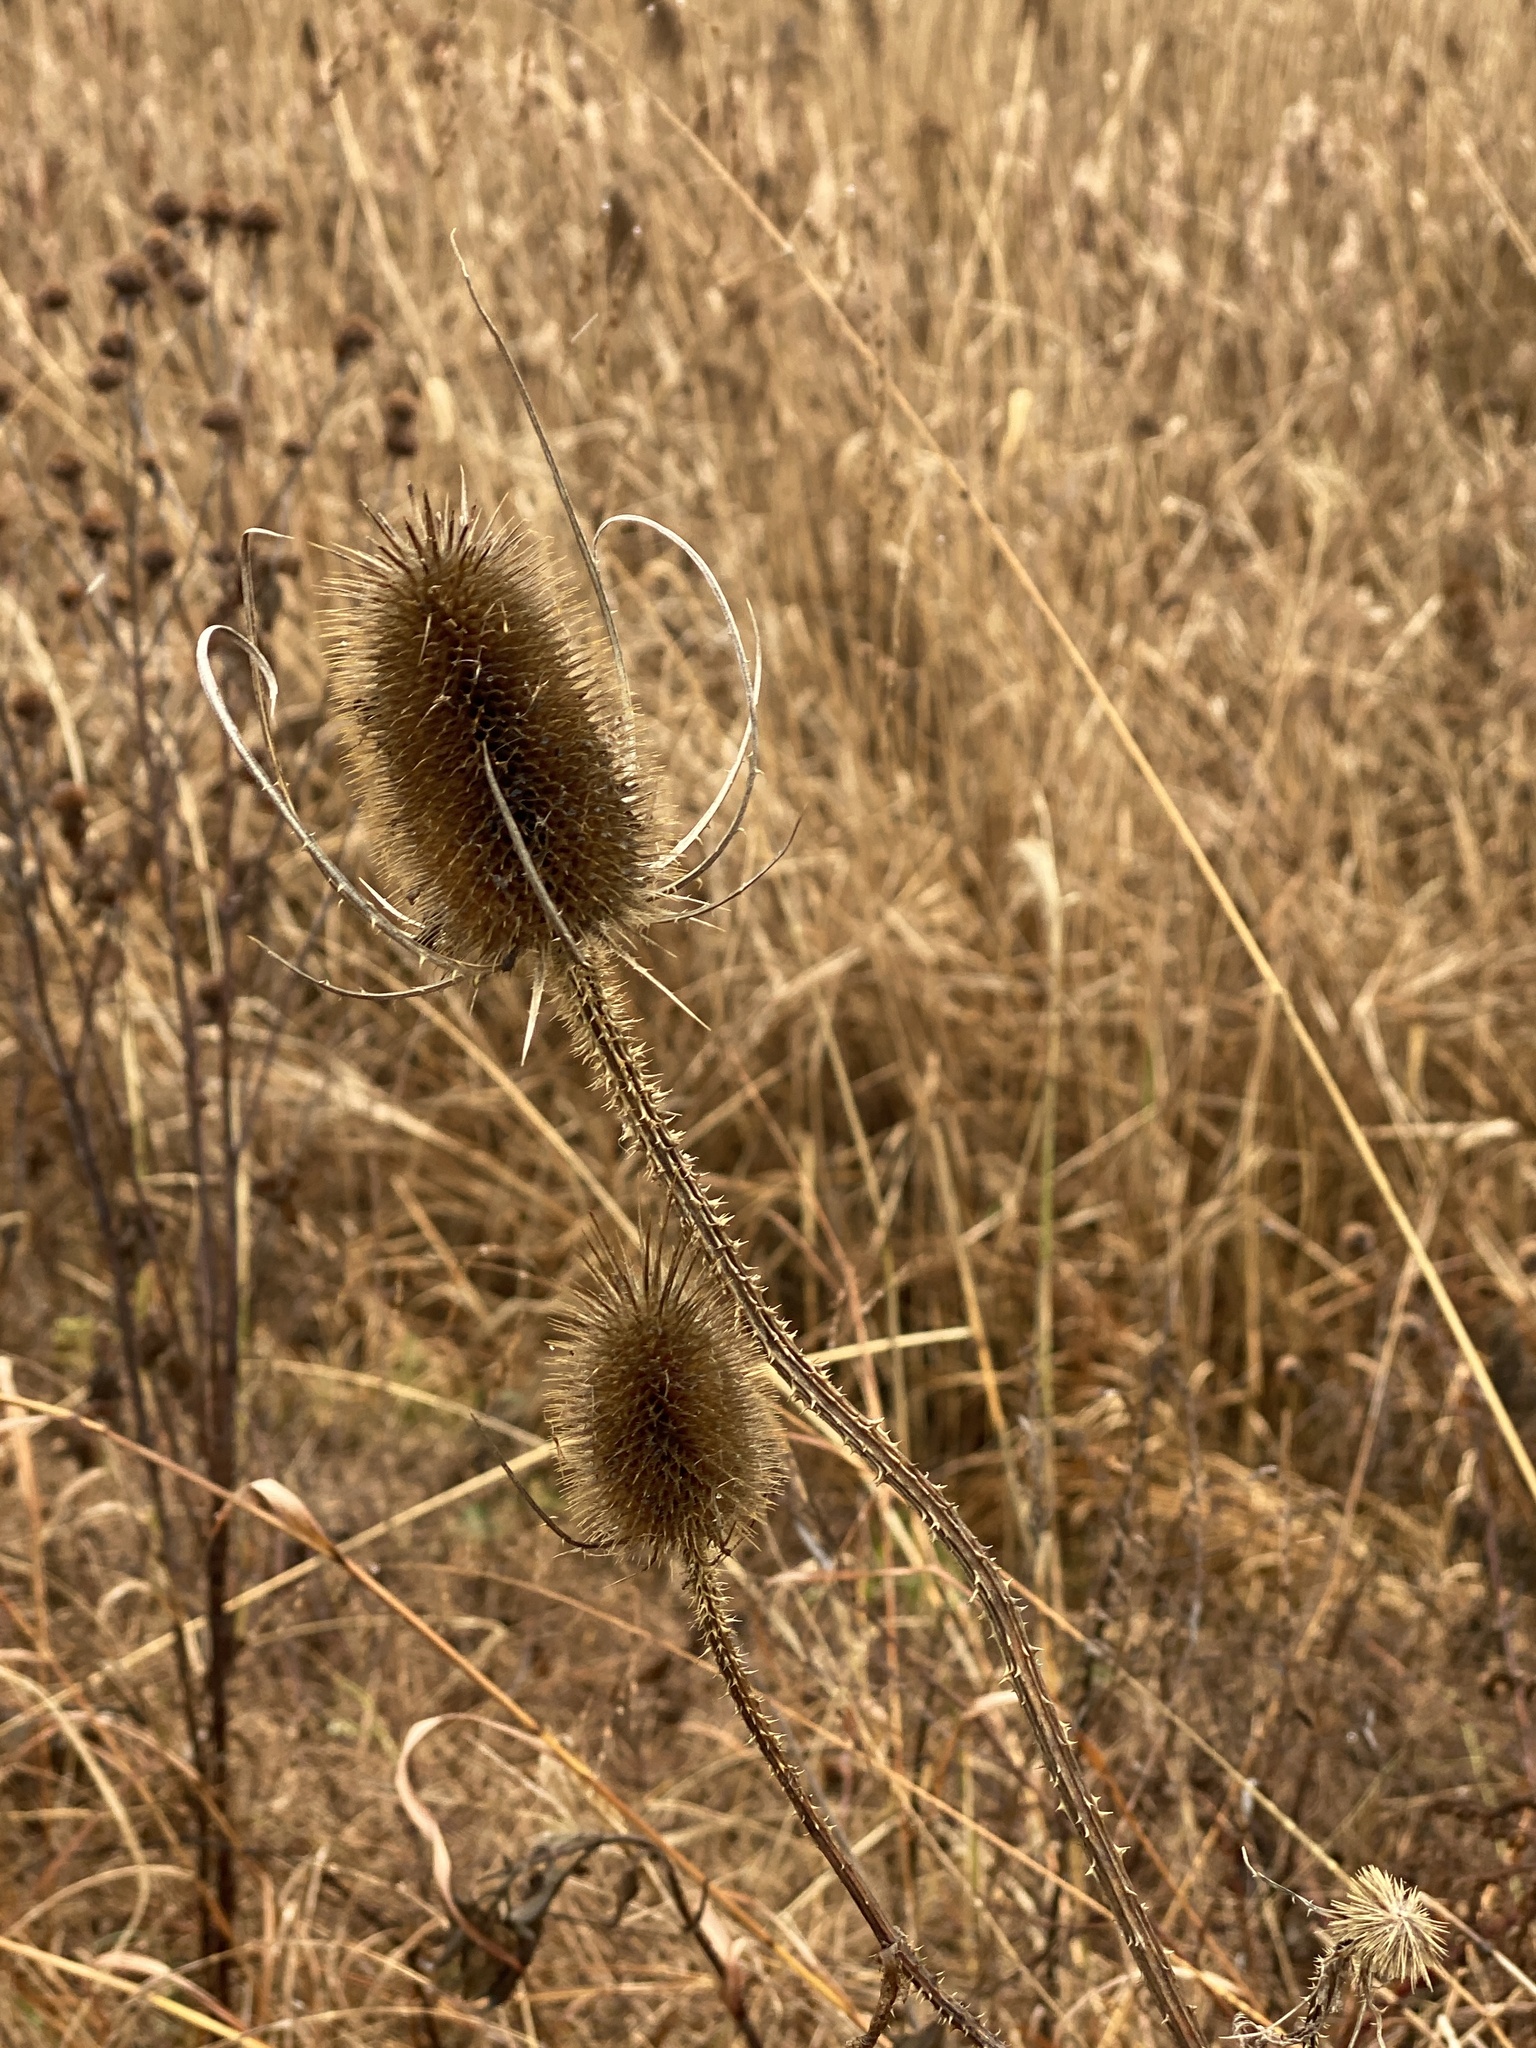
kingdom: Plantae
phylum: Tracheophyta
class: Magnoliopsida
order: Dipsacales
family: Caprifoliaceae
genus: Dipsacus
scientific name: Dipsacus fullonum
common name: Teasel
